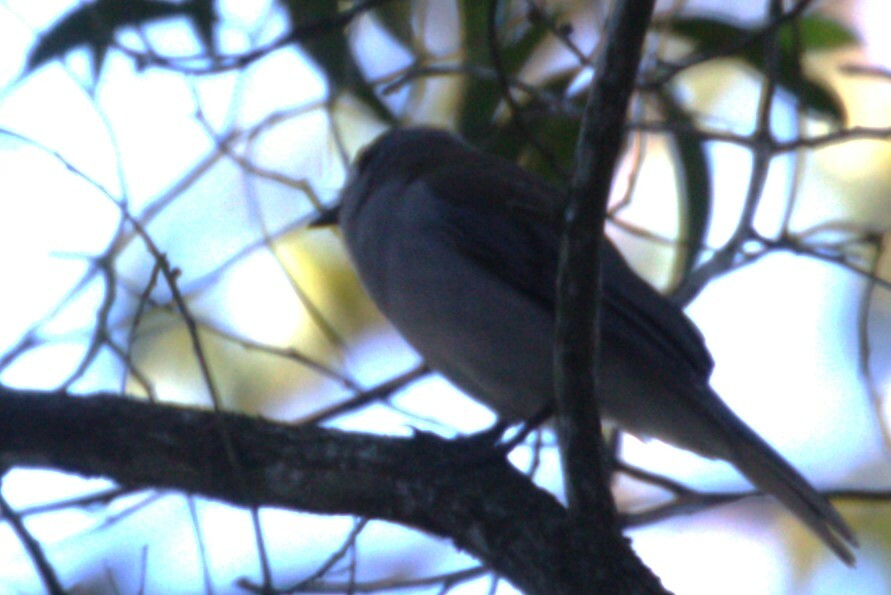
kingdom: Animalia
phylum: Chordata
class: Aves
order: Passeriformes
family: Pachycephalidae
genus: Colluricincla
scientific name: Colluricincla harmonica
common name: Grey shrikethrush
